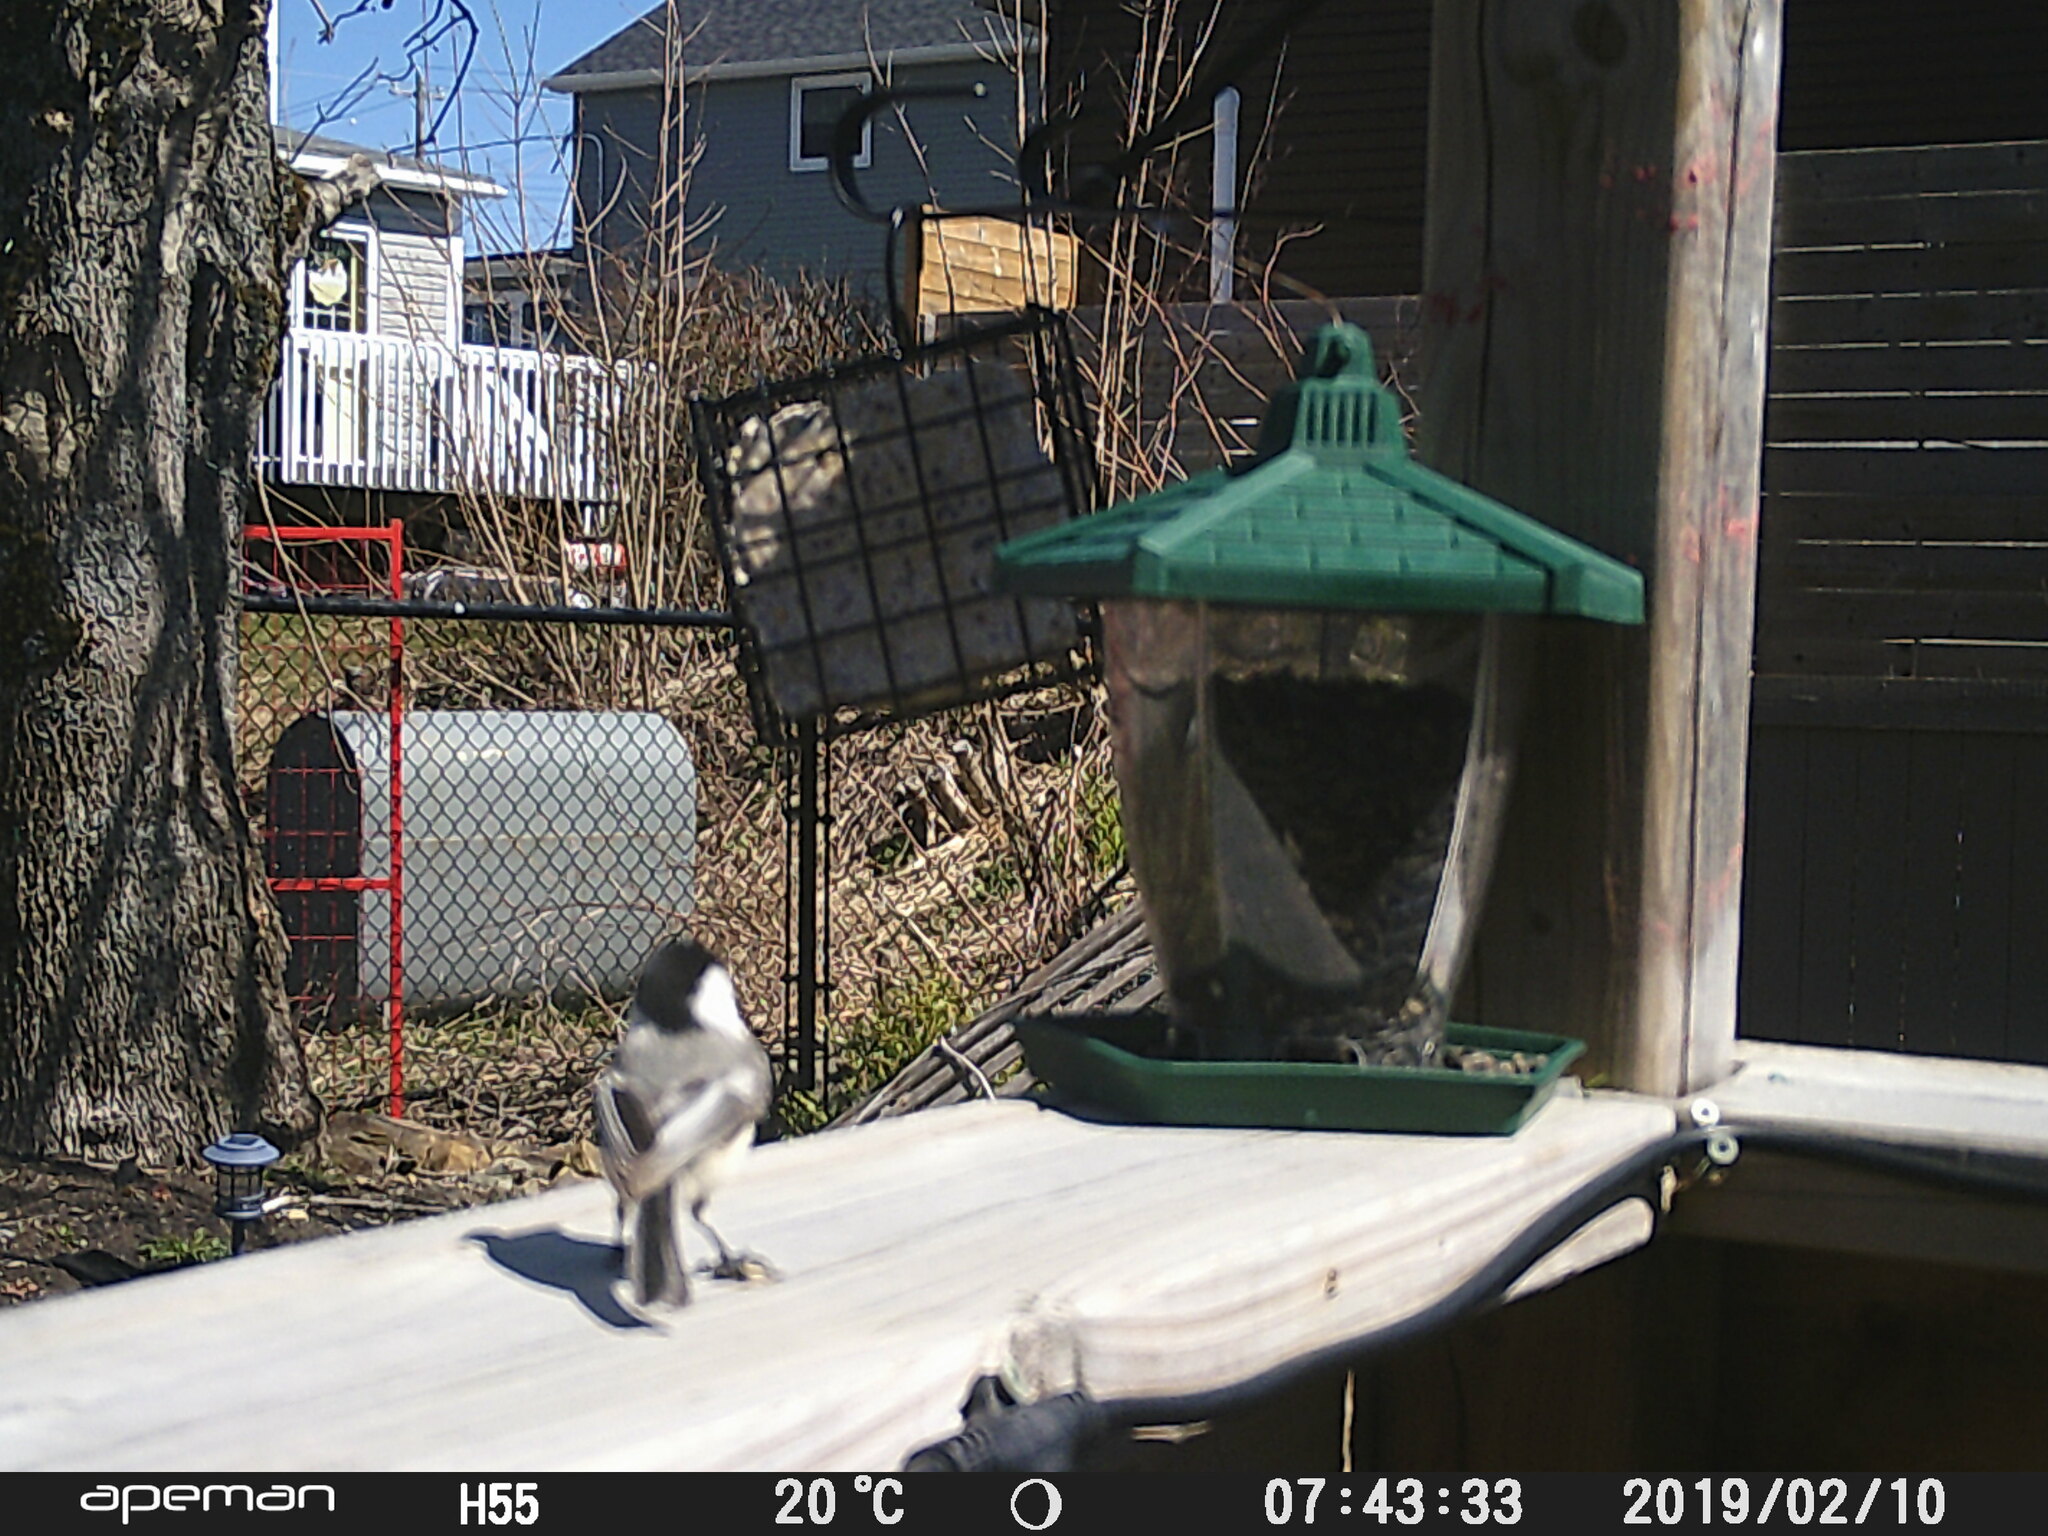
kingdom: Animalia
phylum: Chordata
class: Aves
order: Passeriformes
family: Paridae
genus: Poecile
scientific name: Poecile atricapillus
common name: Black-capped chickadee
